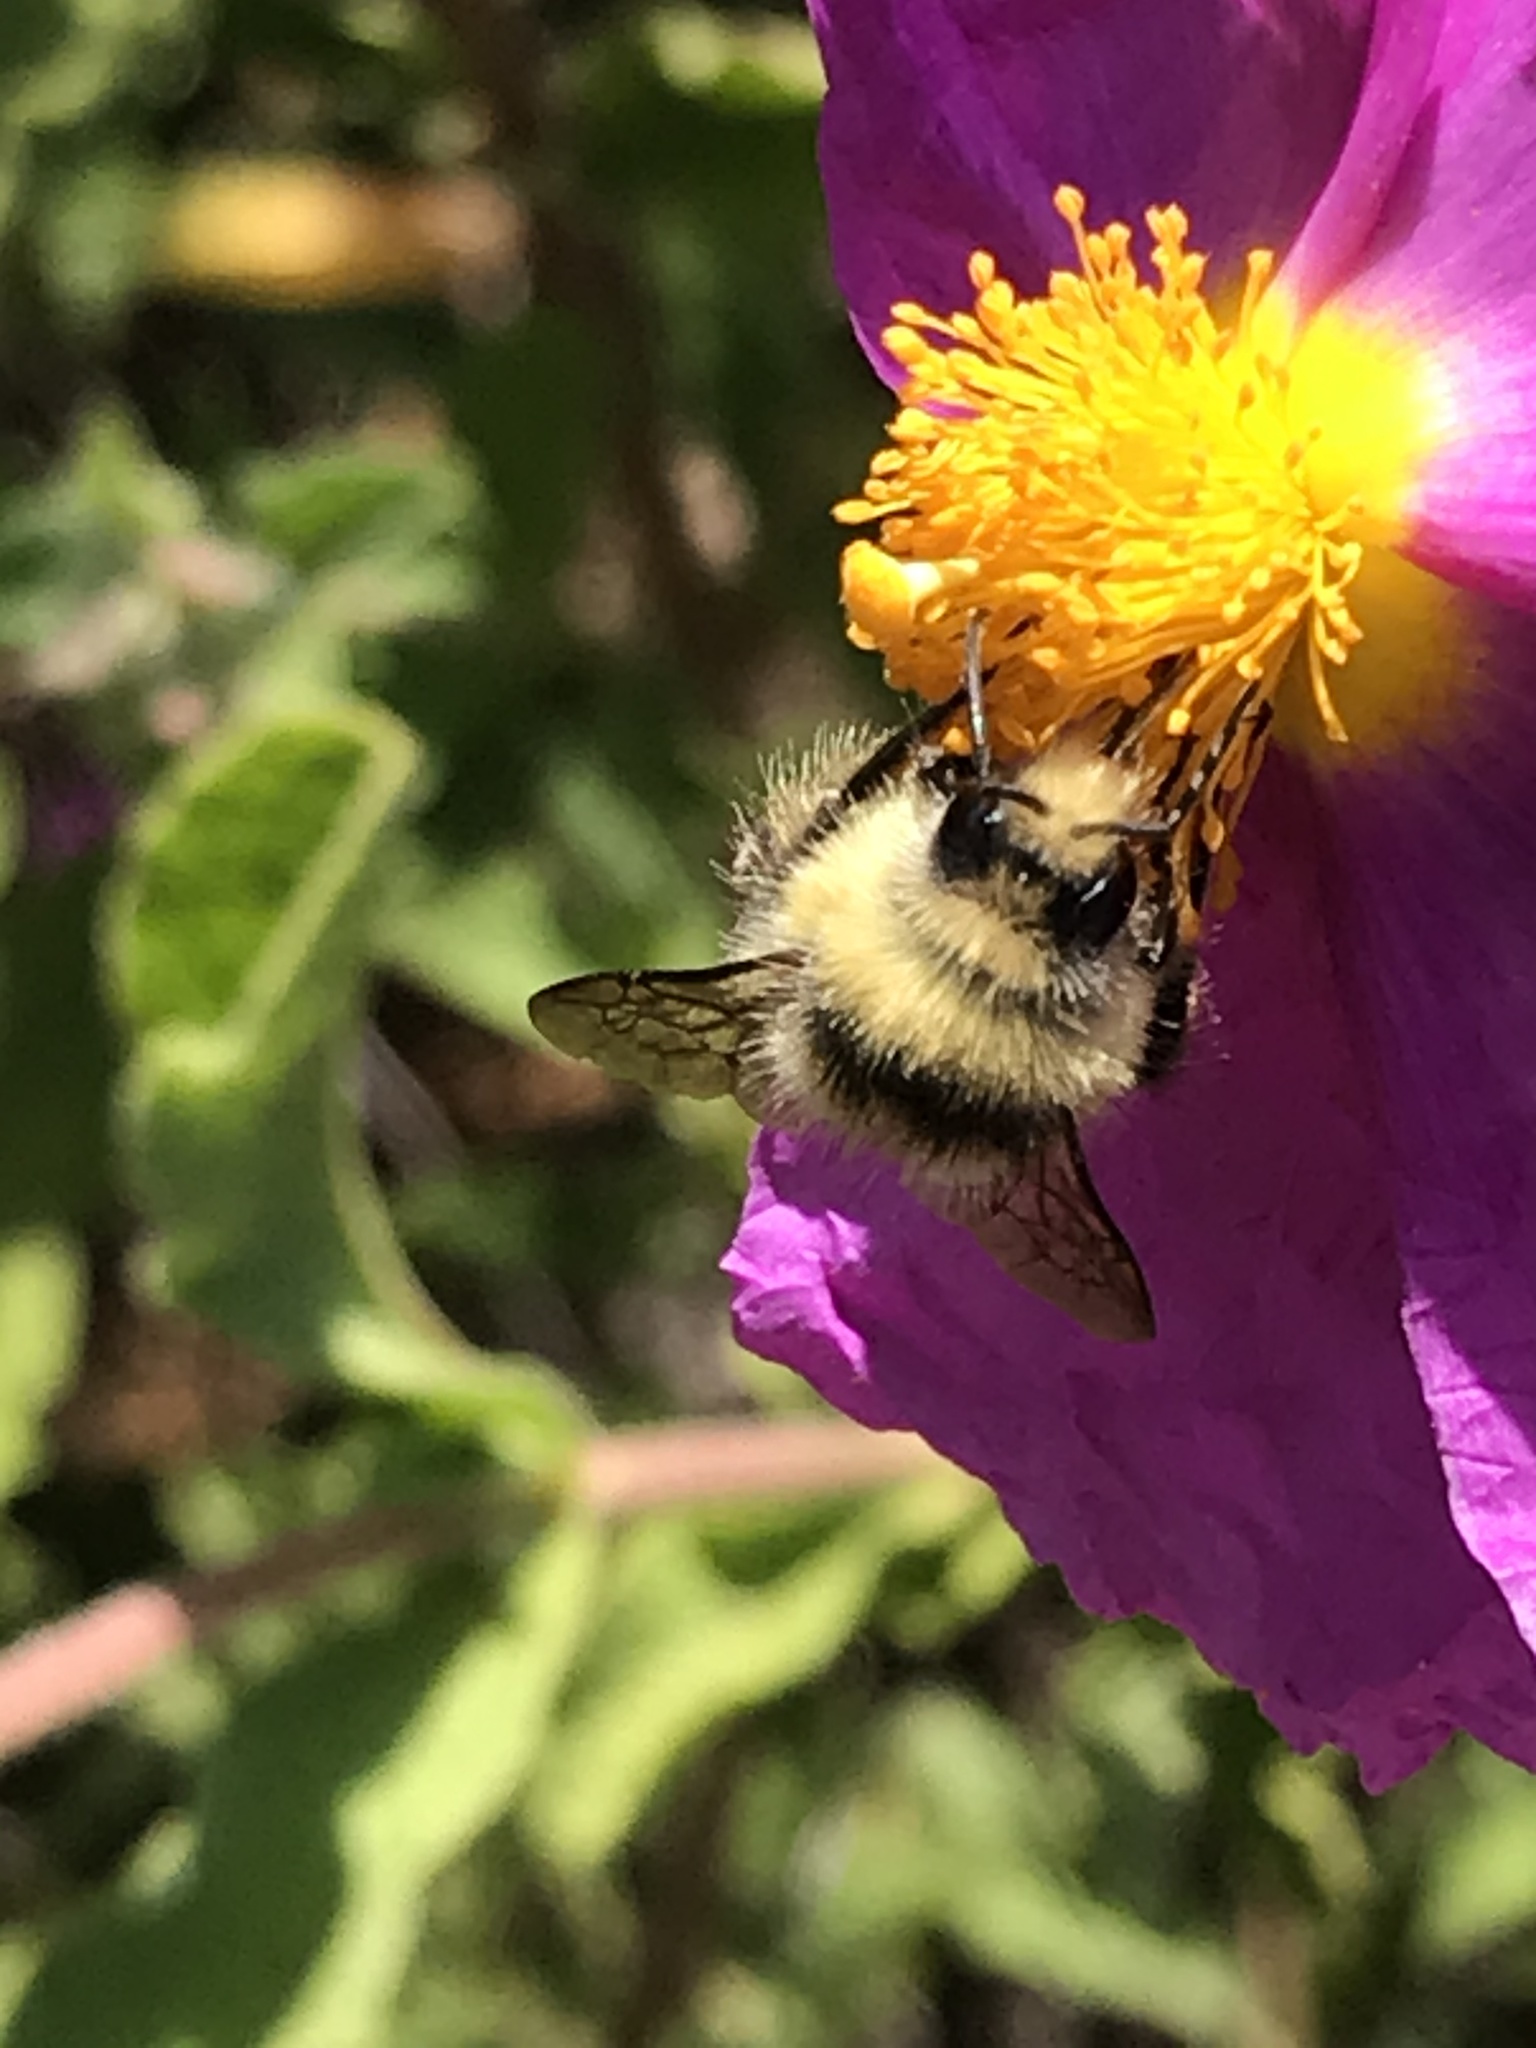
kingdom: Animalia
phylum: Arthropoda
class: Insecta
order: Hymenoptera
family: Apidae
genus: Bombus
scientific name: Bombus melanopygus
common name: Black tail bumble bee
